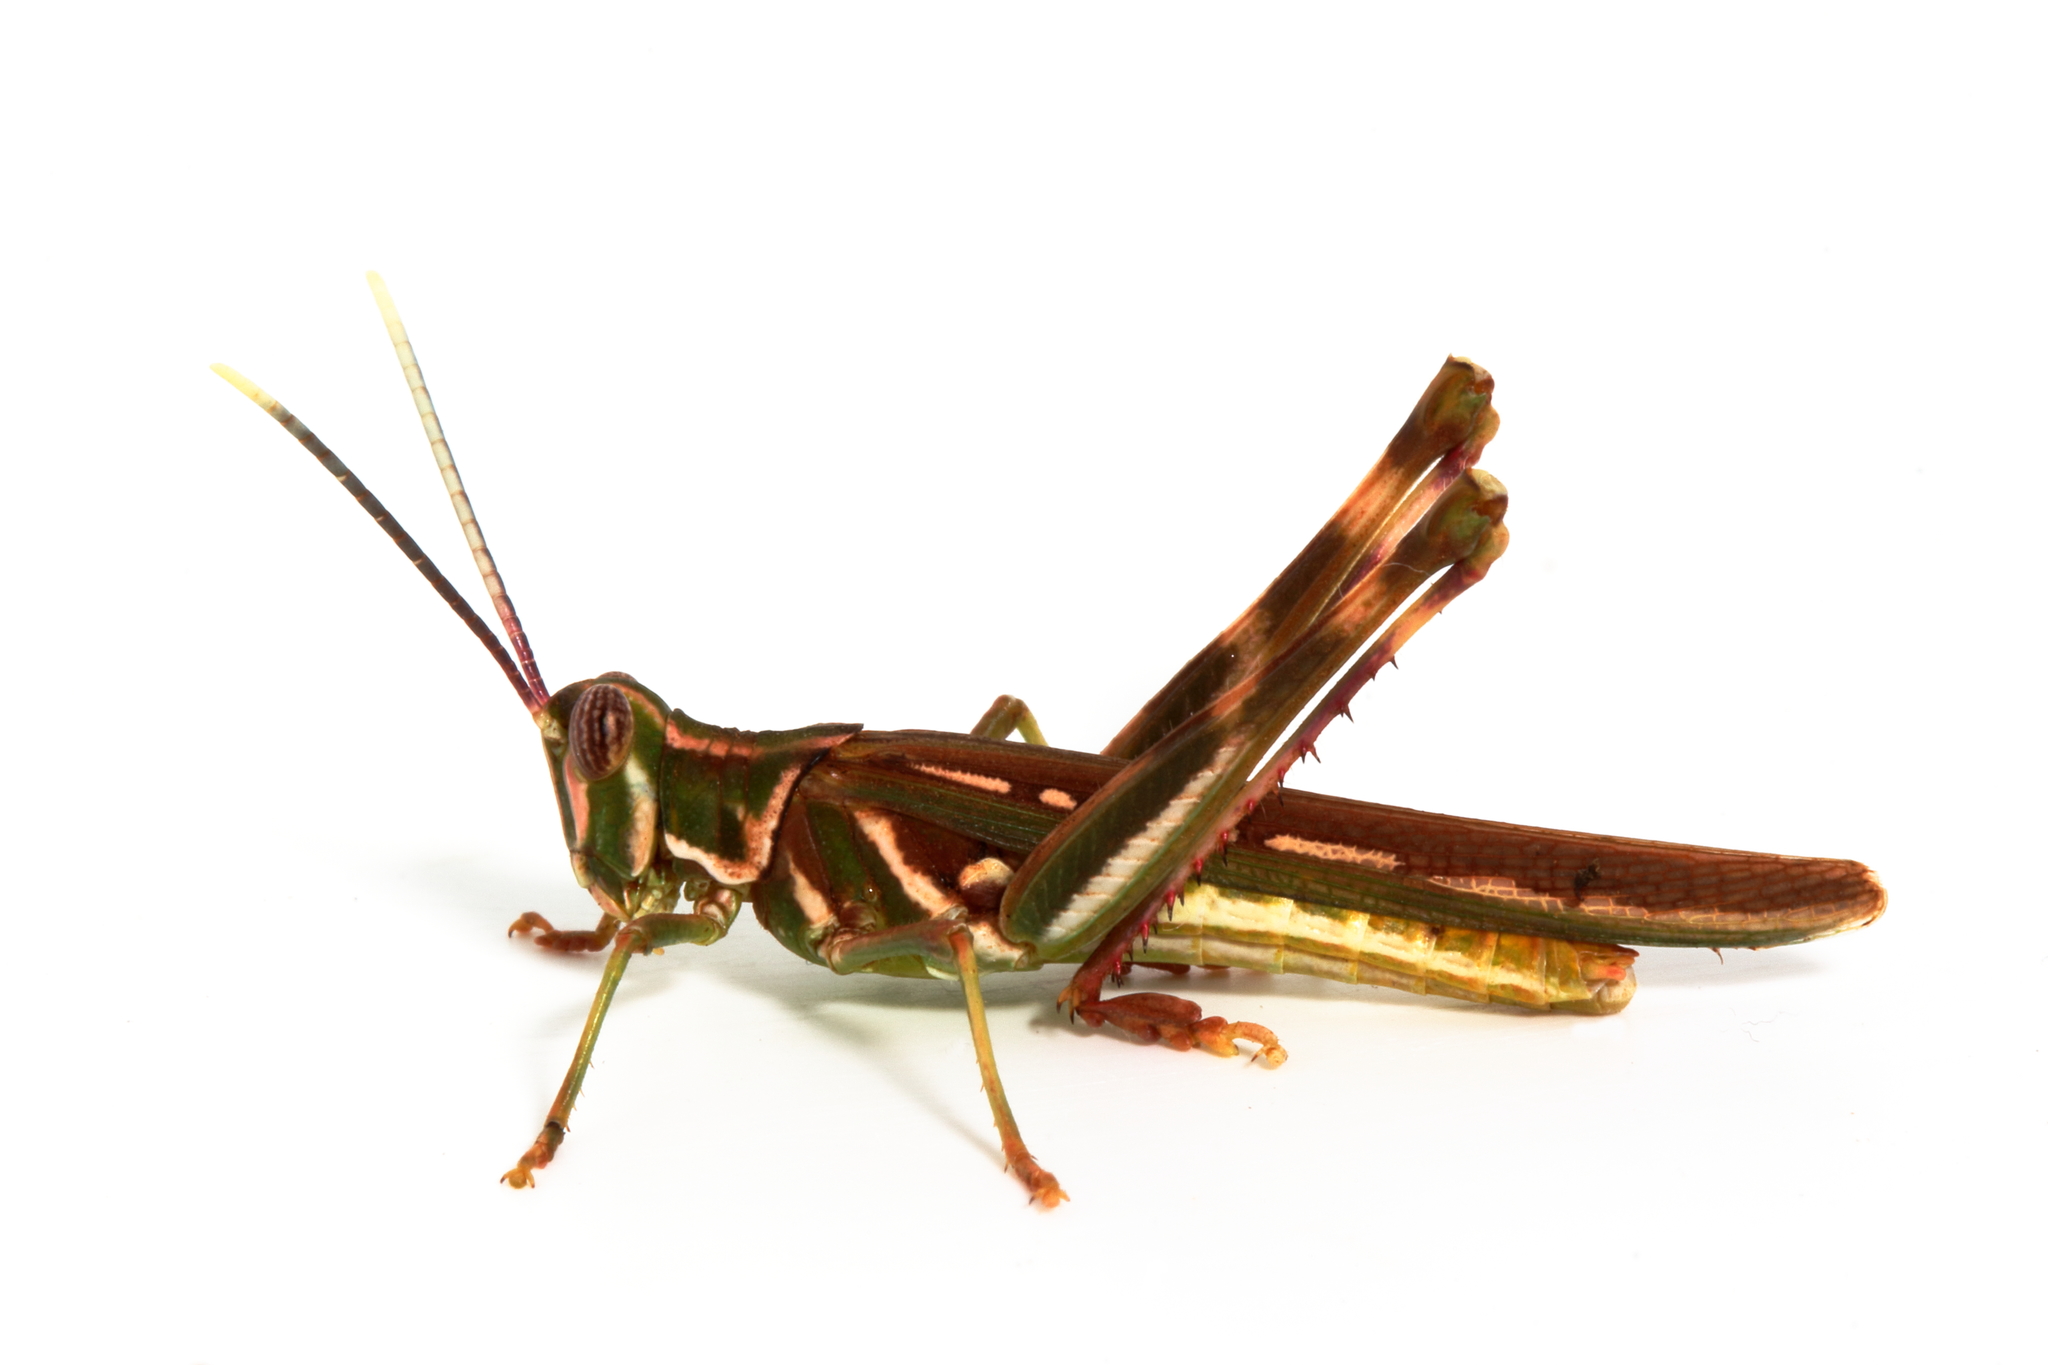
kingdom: Animalia
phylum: Arthropoda
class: Insecta
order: Orthoptera
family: Acrididae
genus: Histrioacrida
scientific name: Histrioacrida roseipennis
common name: Halgania grasshopper
